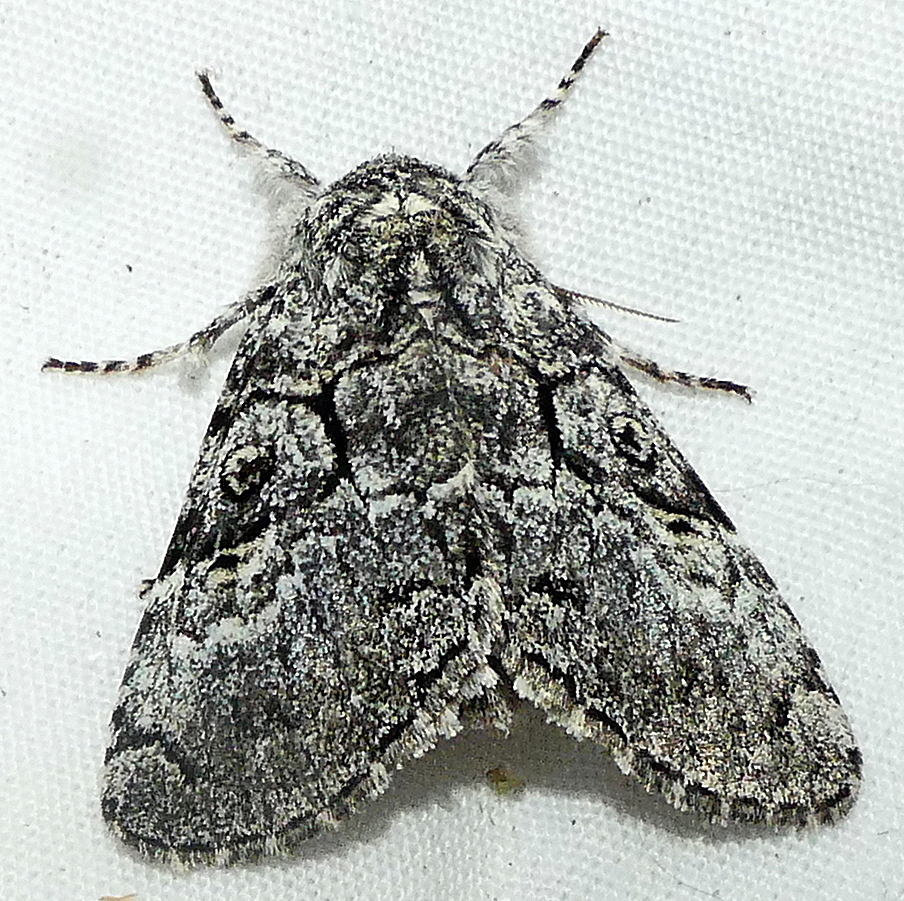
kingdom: Animalia
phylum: Arthropoda
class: Insecta
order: Lepidoptera
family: Noctuidae
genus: Charadra
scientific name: Charadra deridens
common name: Marbled tuffet
